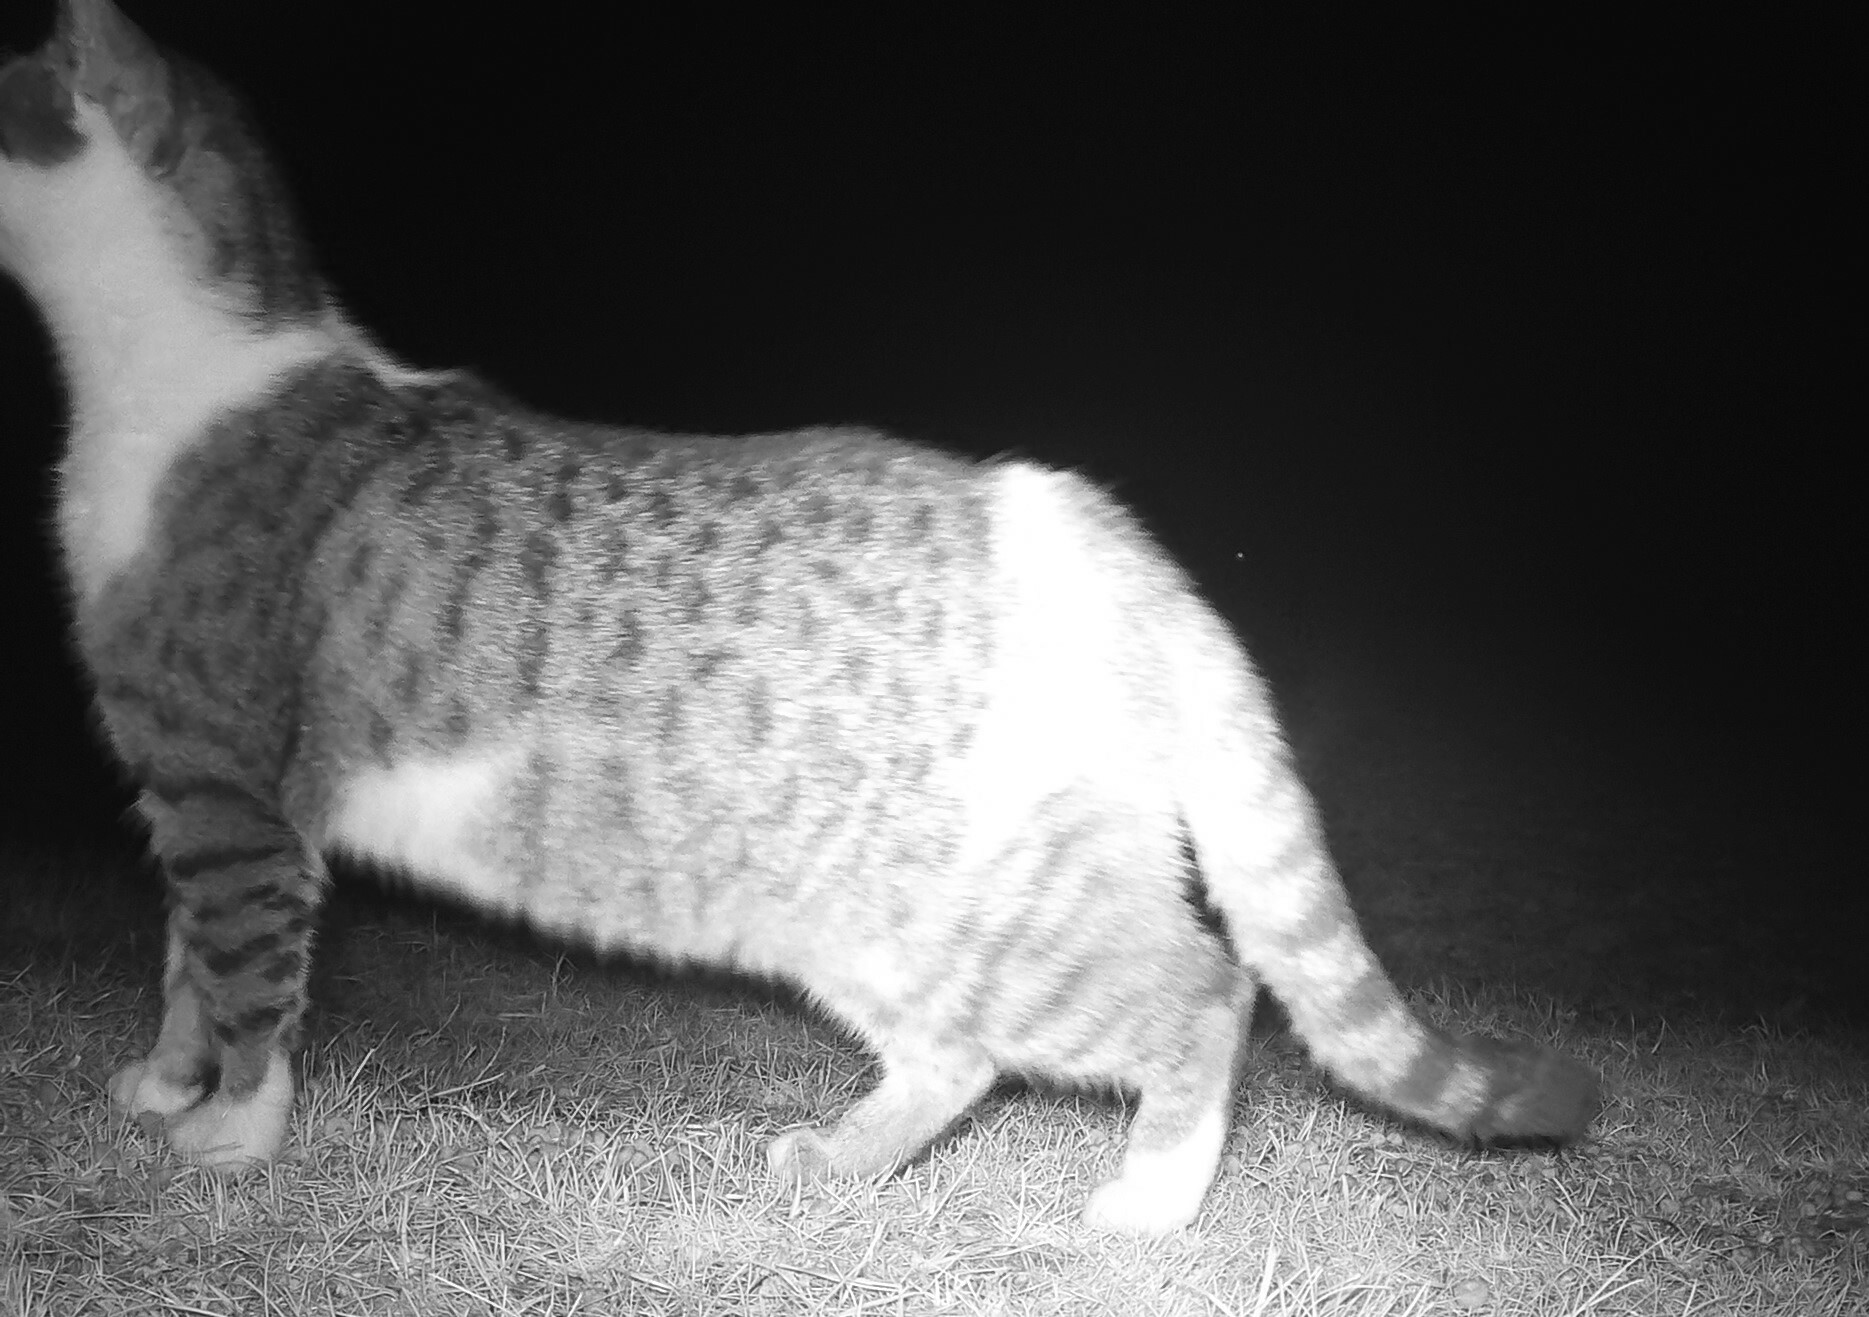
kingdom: Animalia
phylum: Chordata
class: Mammalia
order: Carnivora
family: Felidae
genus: Felis
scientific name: Felis catus
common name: Domestic cat
